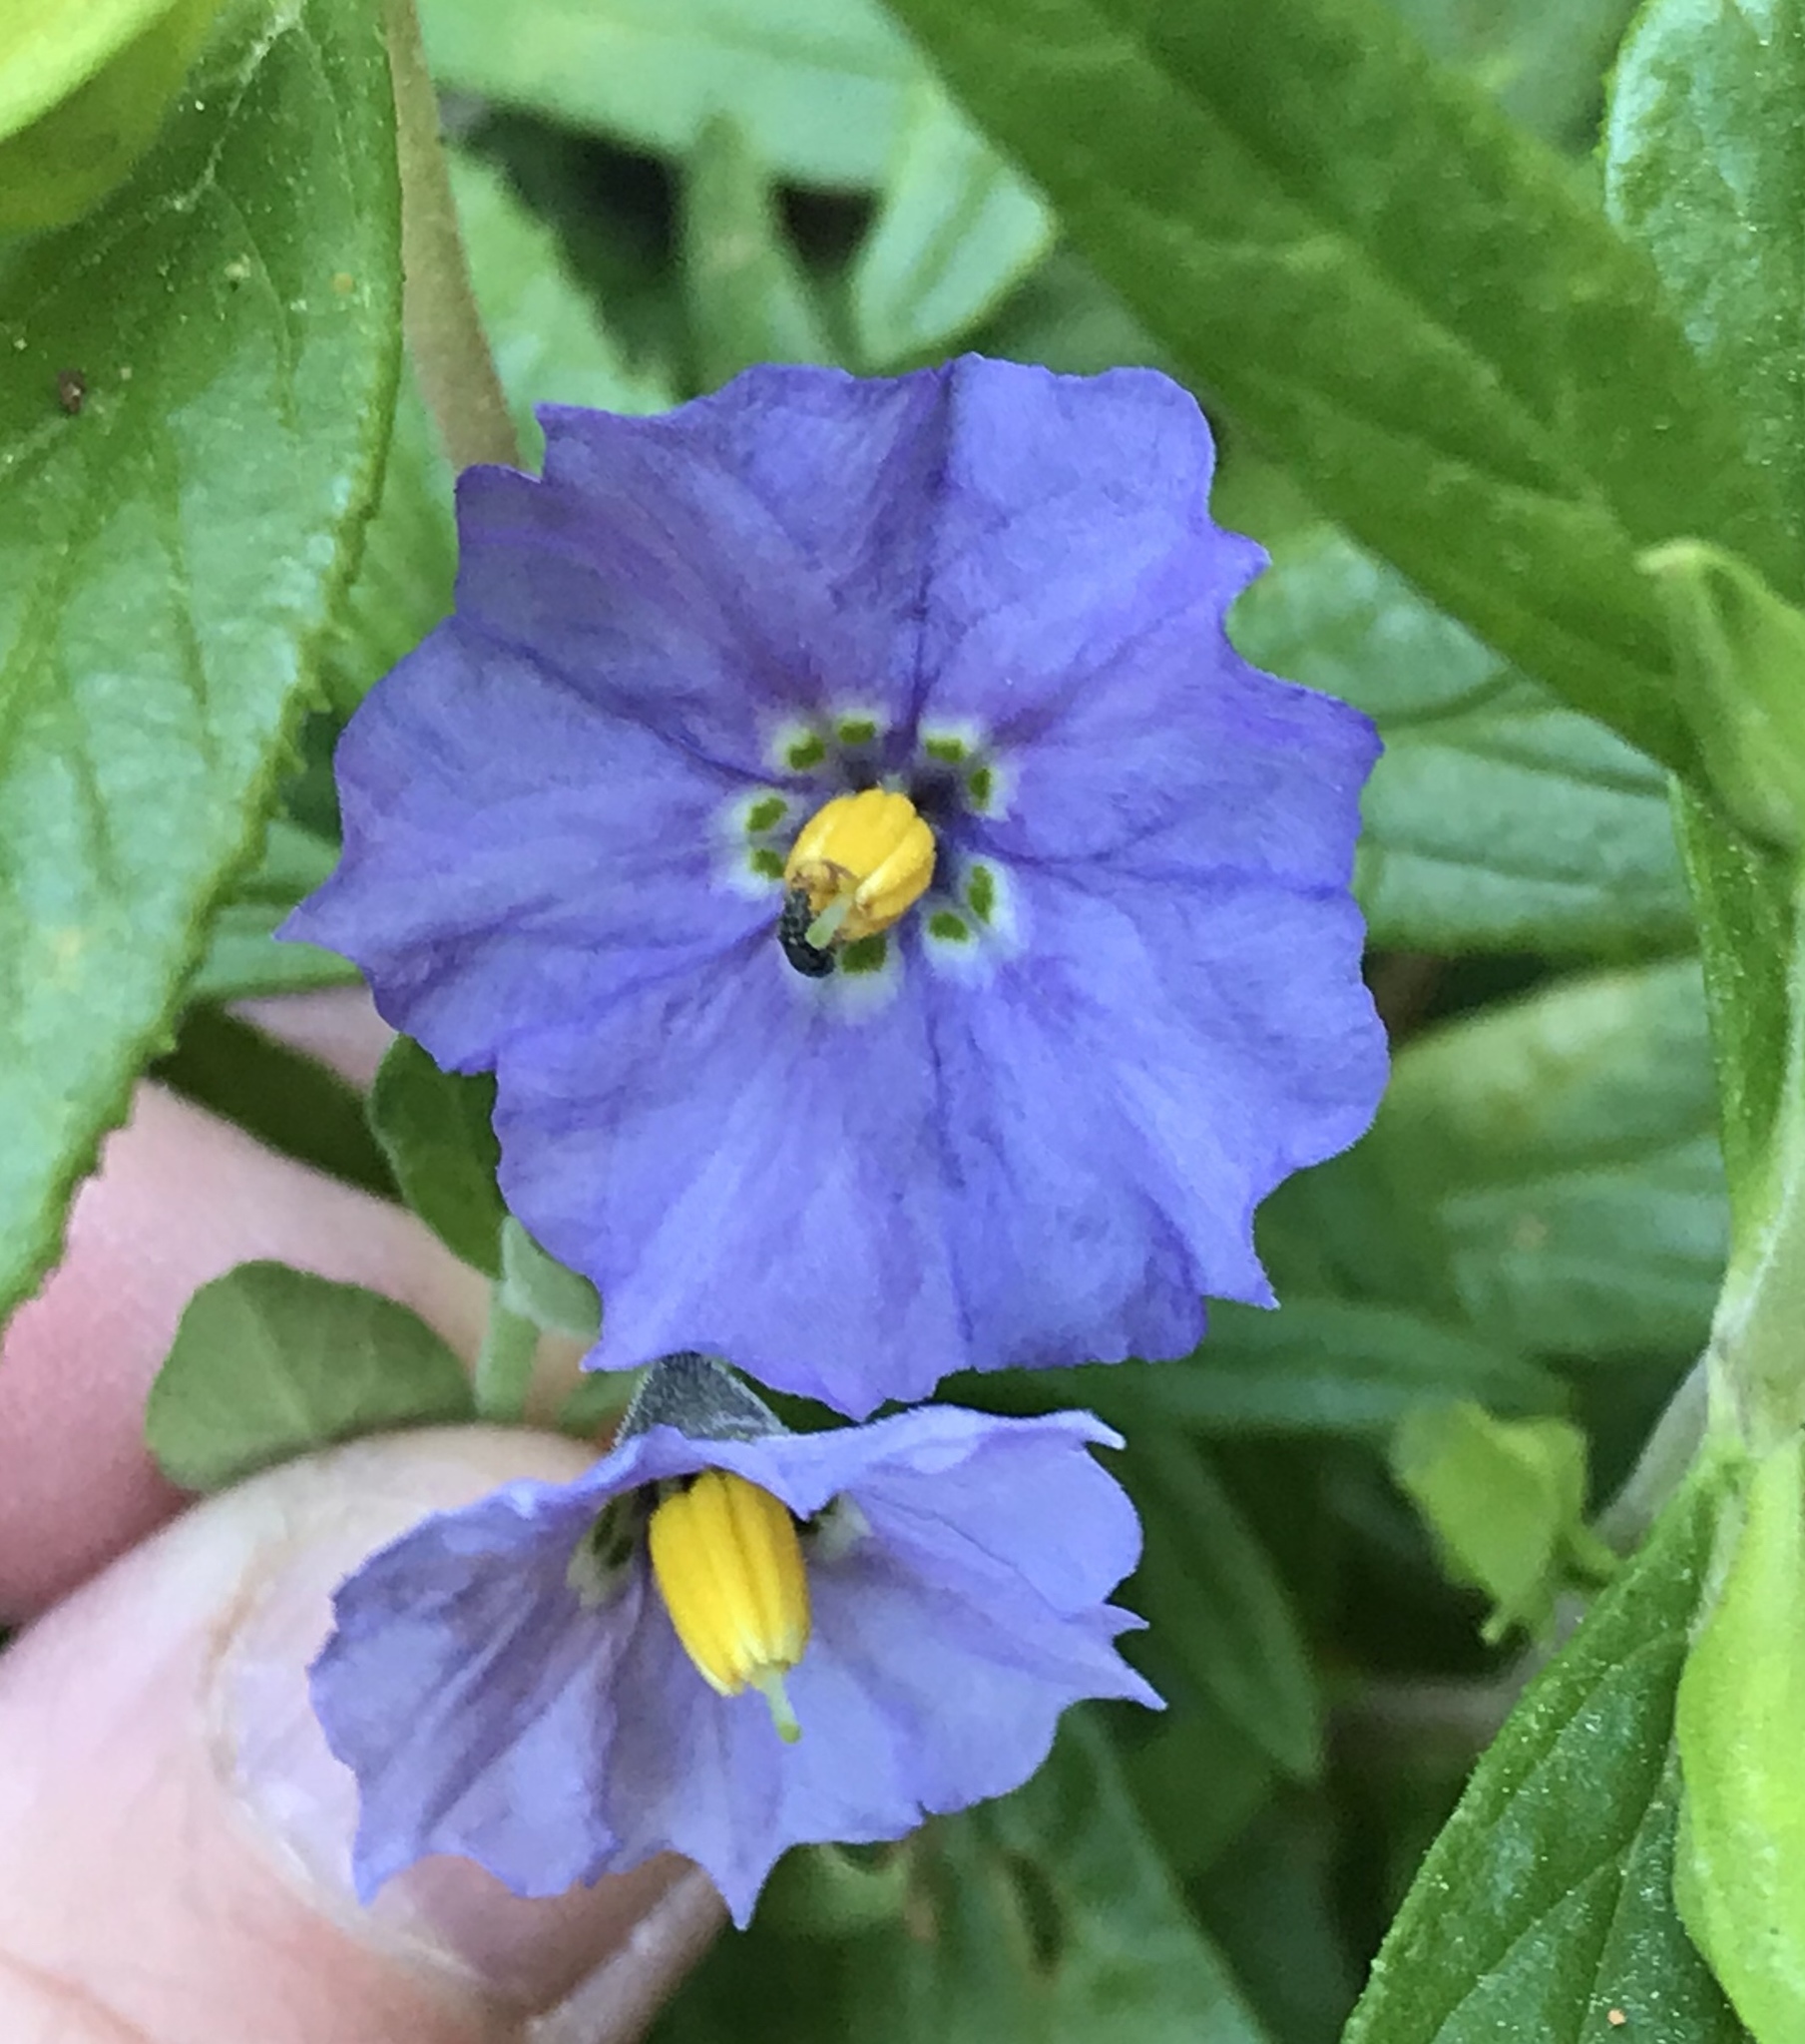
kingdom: Plantae
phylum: Tracheophyta
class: Magnoliopsida
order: Solanales
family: Solanaceae
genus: Solanum
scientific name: Solanum umbelliferum
